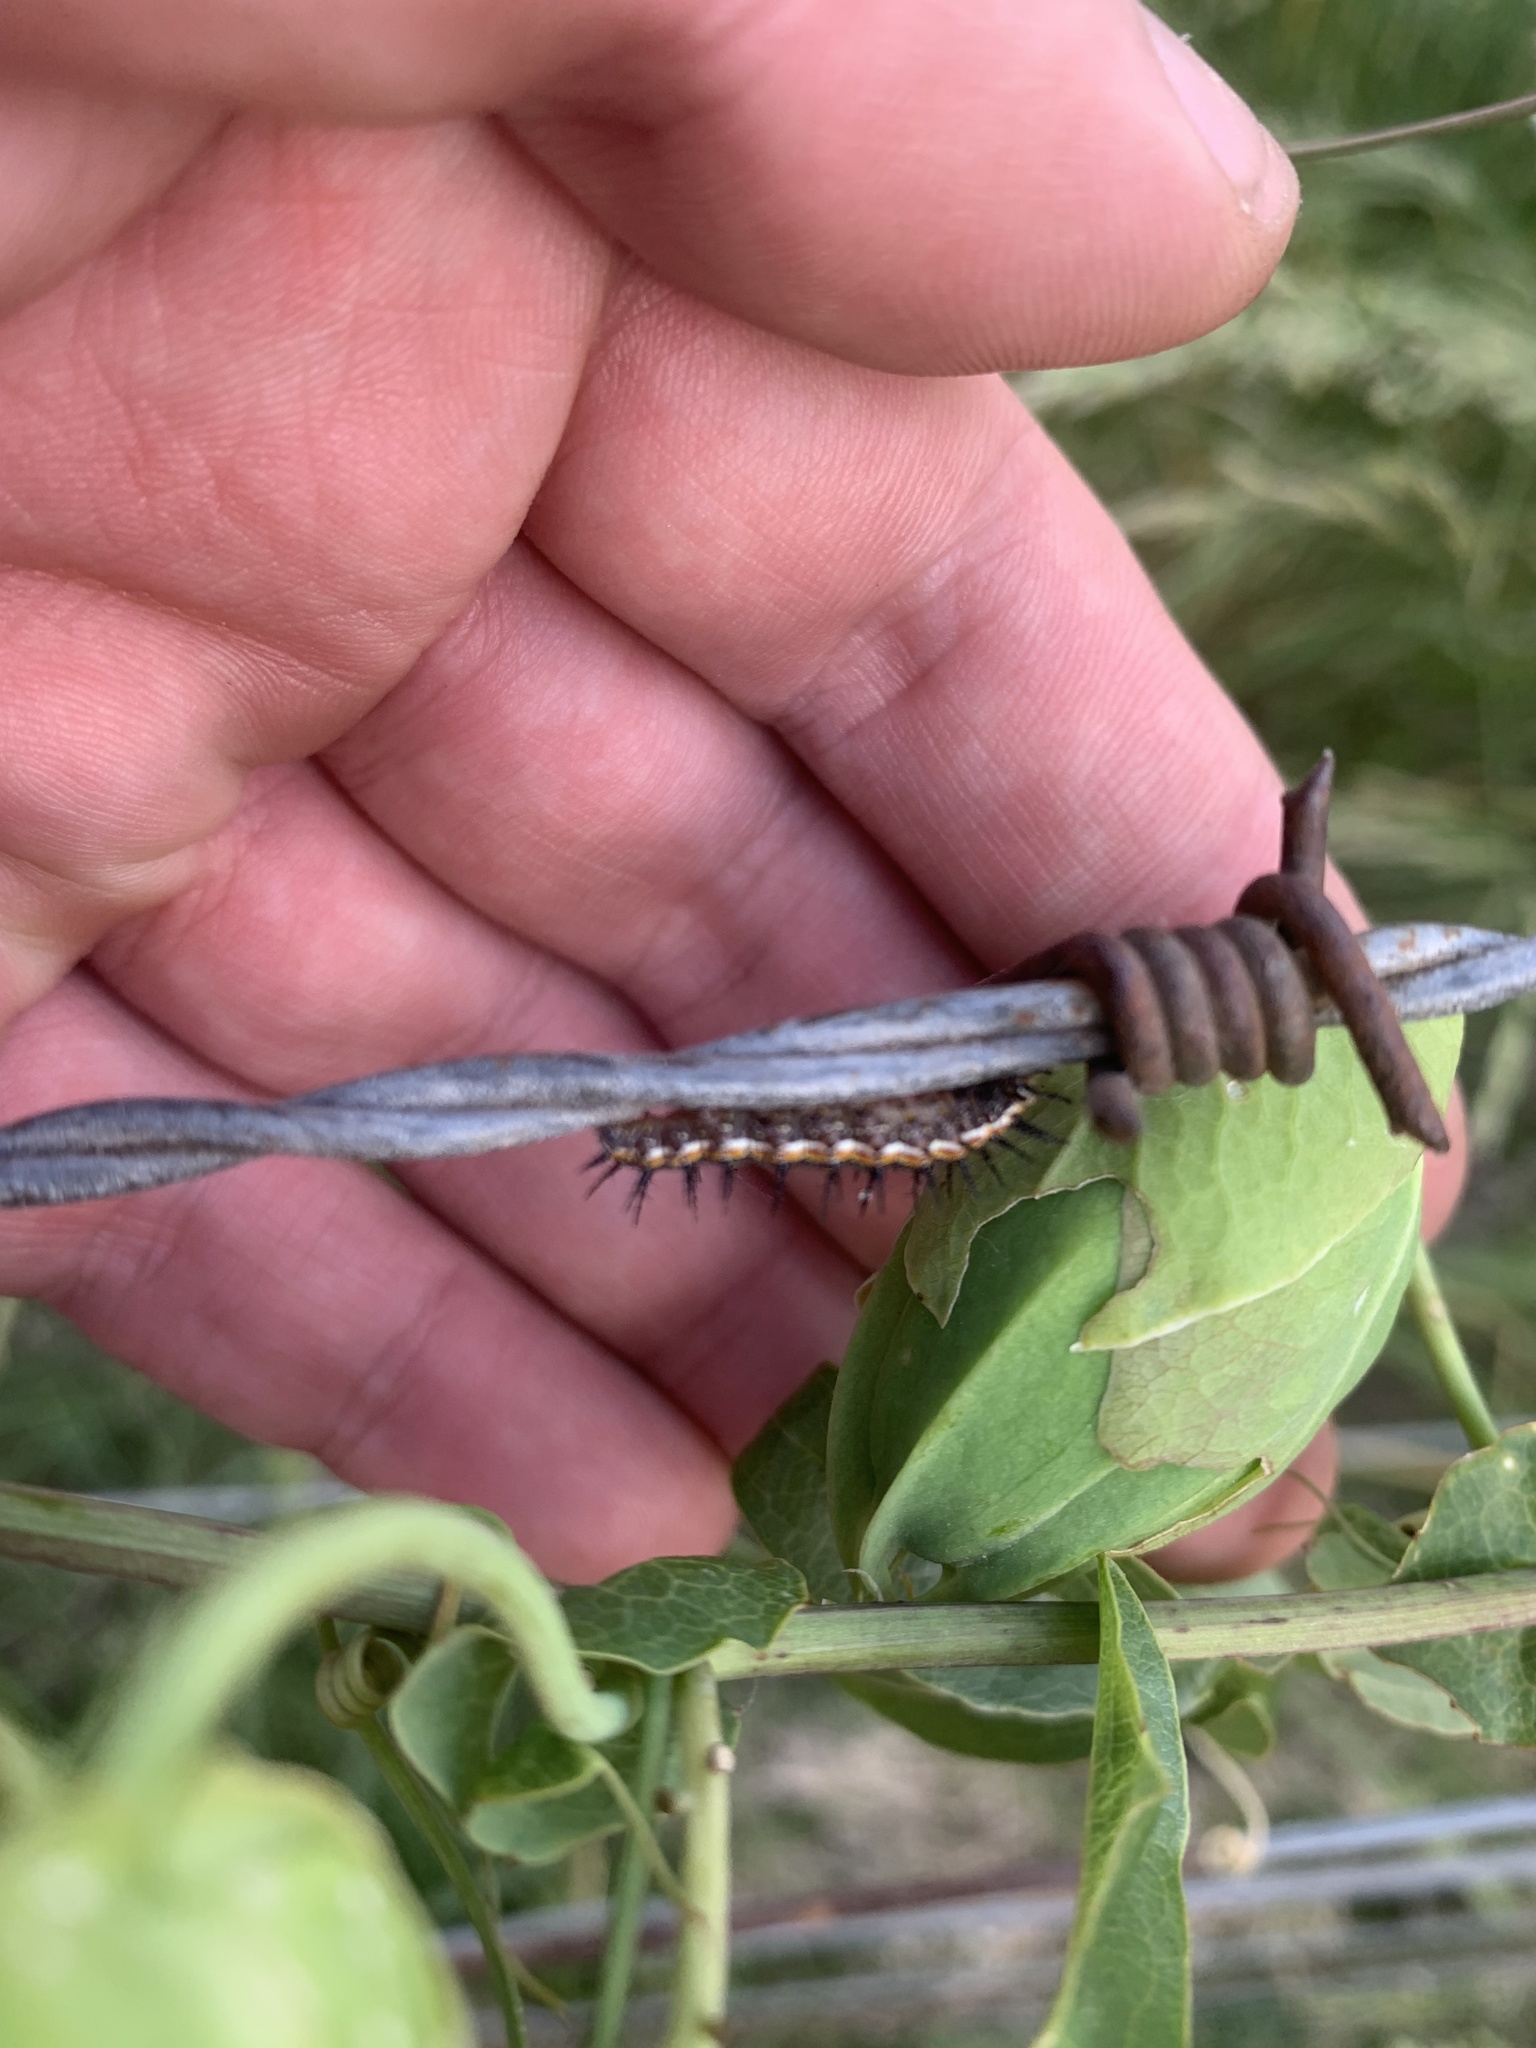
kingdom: Animalia
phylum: Arthropoda
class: Insecta
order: Lepidoptera
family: Nymphalidae
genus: Dione
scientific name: Dione vanillae
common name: Gulf fritillary
